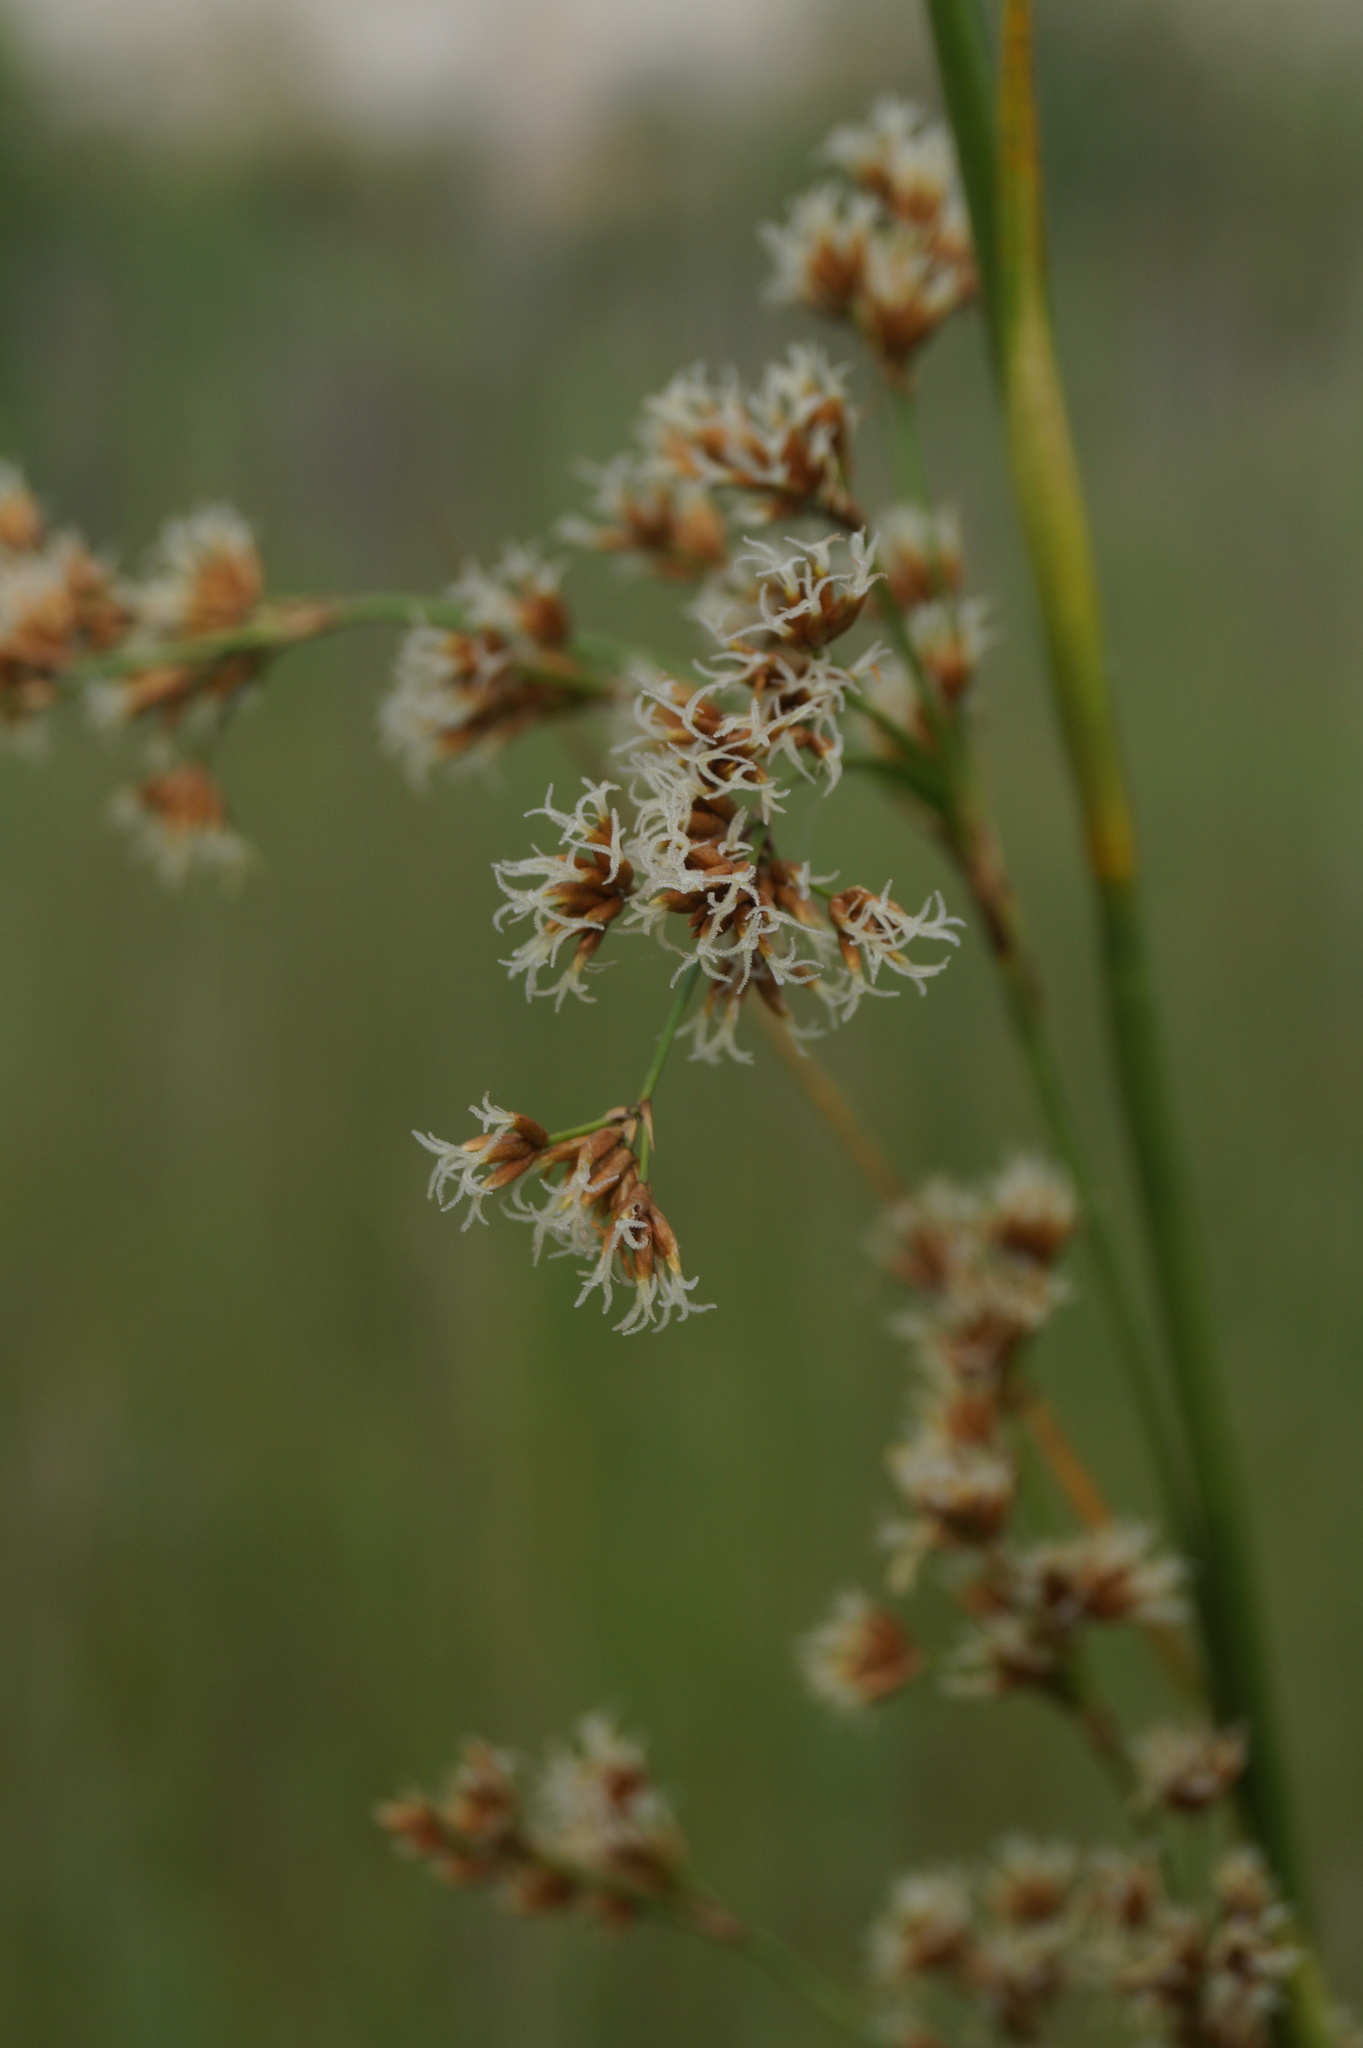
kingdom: Plantae
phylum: Tracheophyta
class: Liliopsida
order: Poales
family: Cyperaceae
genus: Cladium
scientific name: Cladium mariscus
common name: Great fen-sedge
